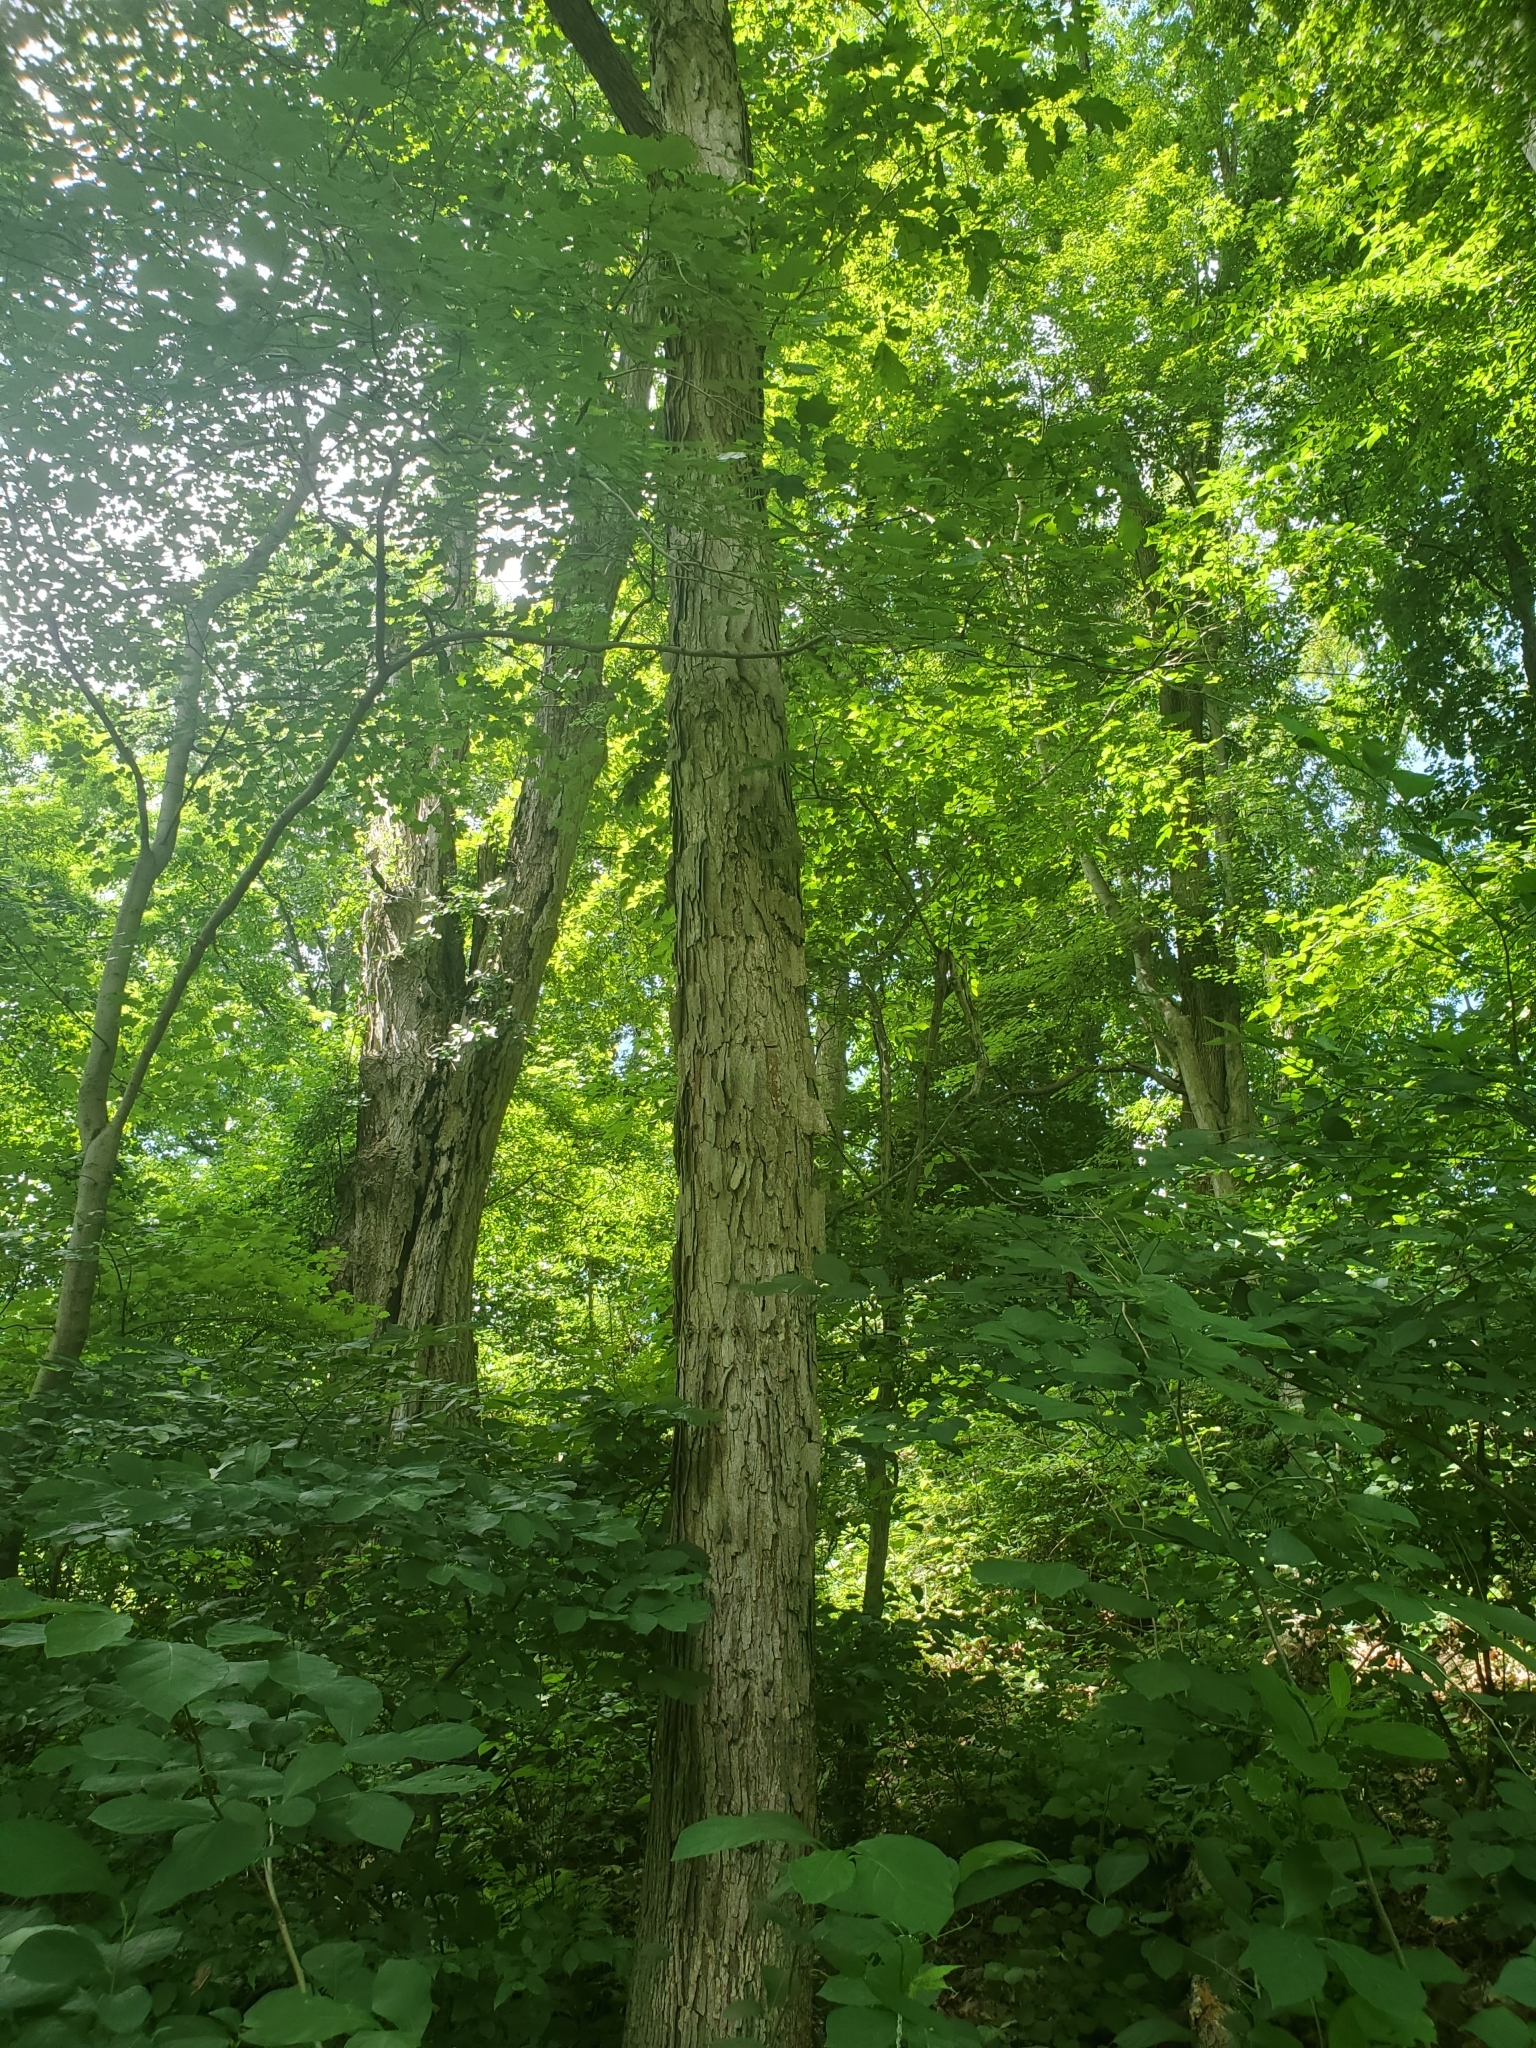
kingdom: Plantae
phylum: Tracheophyta
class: Magnoliopsida
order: Fagales
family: Fagaceae
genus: Quercus
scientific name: Quercus alba
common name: White oak
